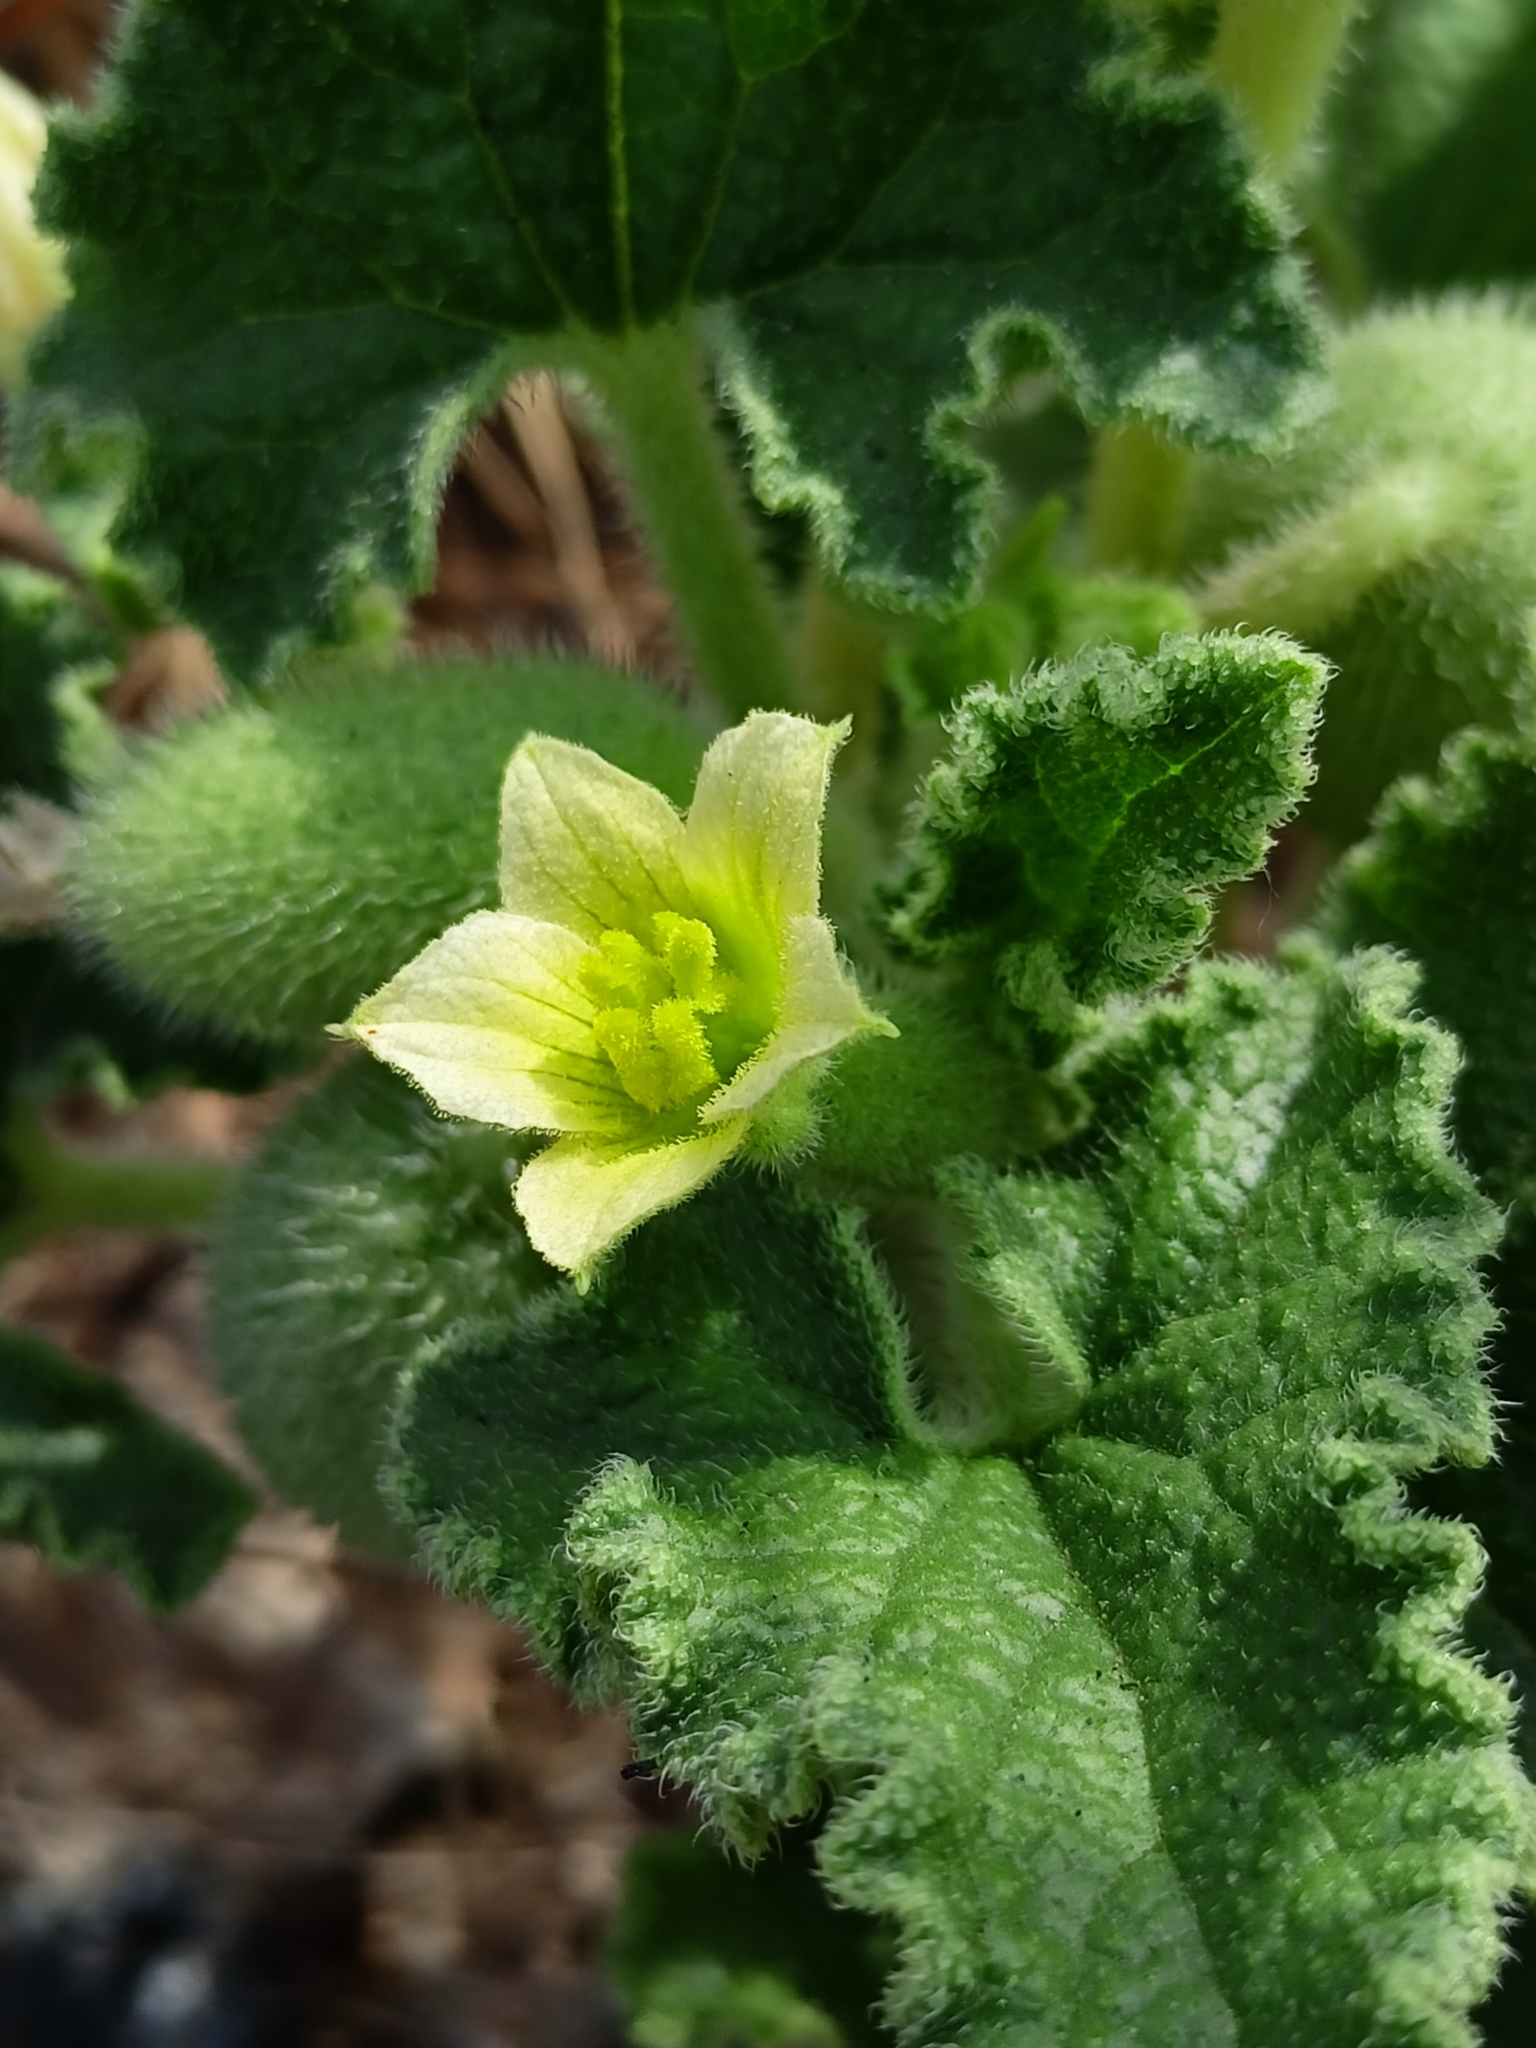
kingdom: Plantae
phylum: Tracheophyta
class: Magnoliopsida
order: Cucurbitales
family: Cucurbitaceae
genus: Ecballium
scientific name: Ecballium elaterium
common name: Squirting cucumber
